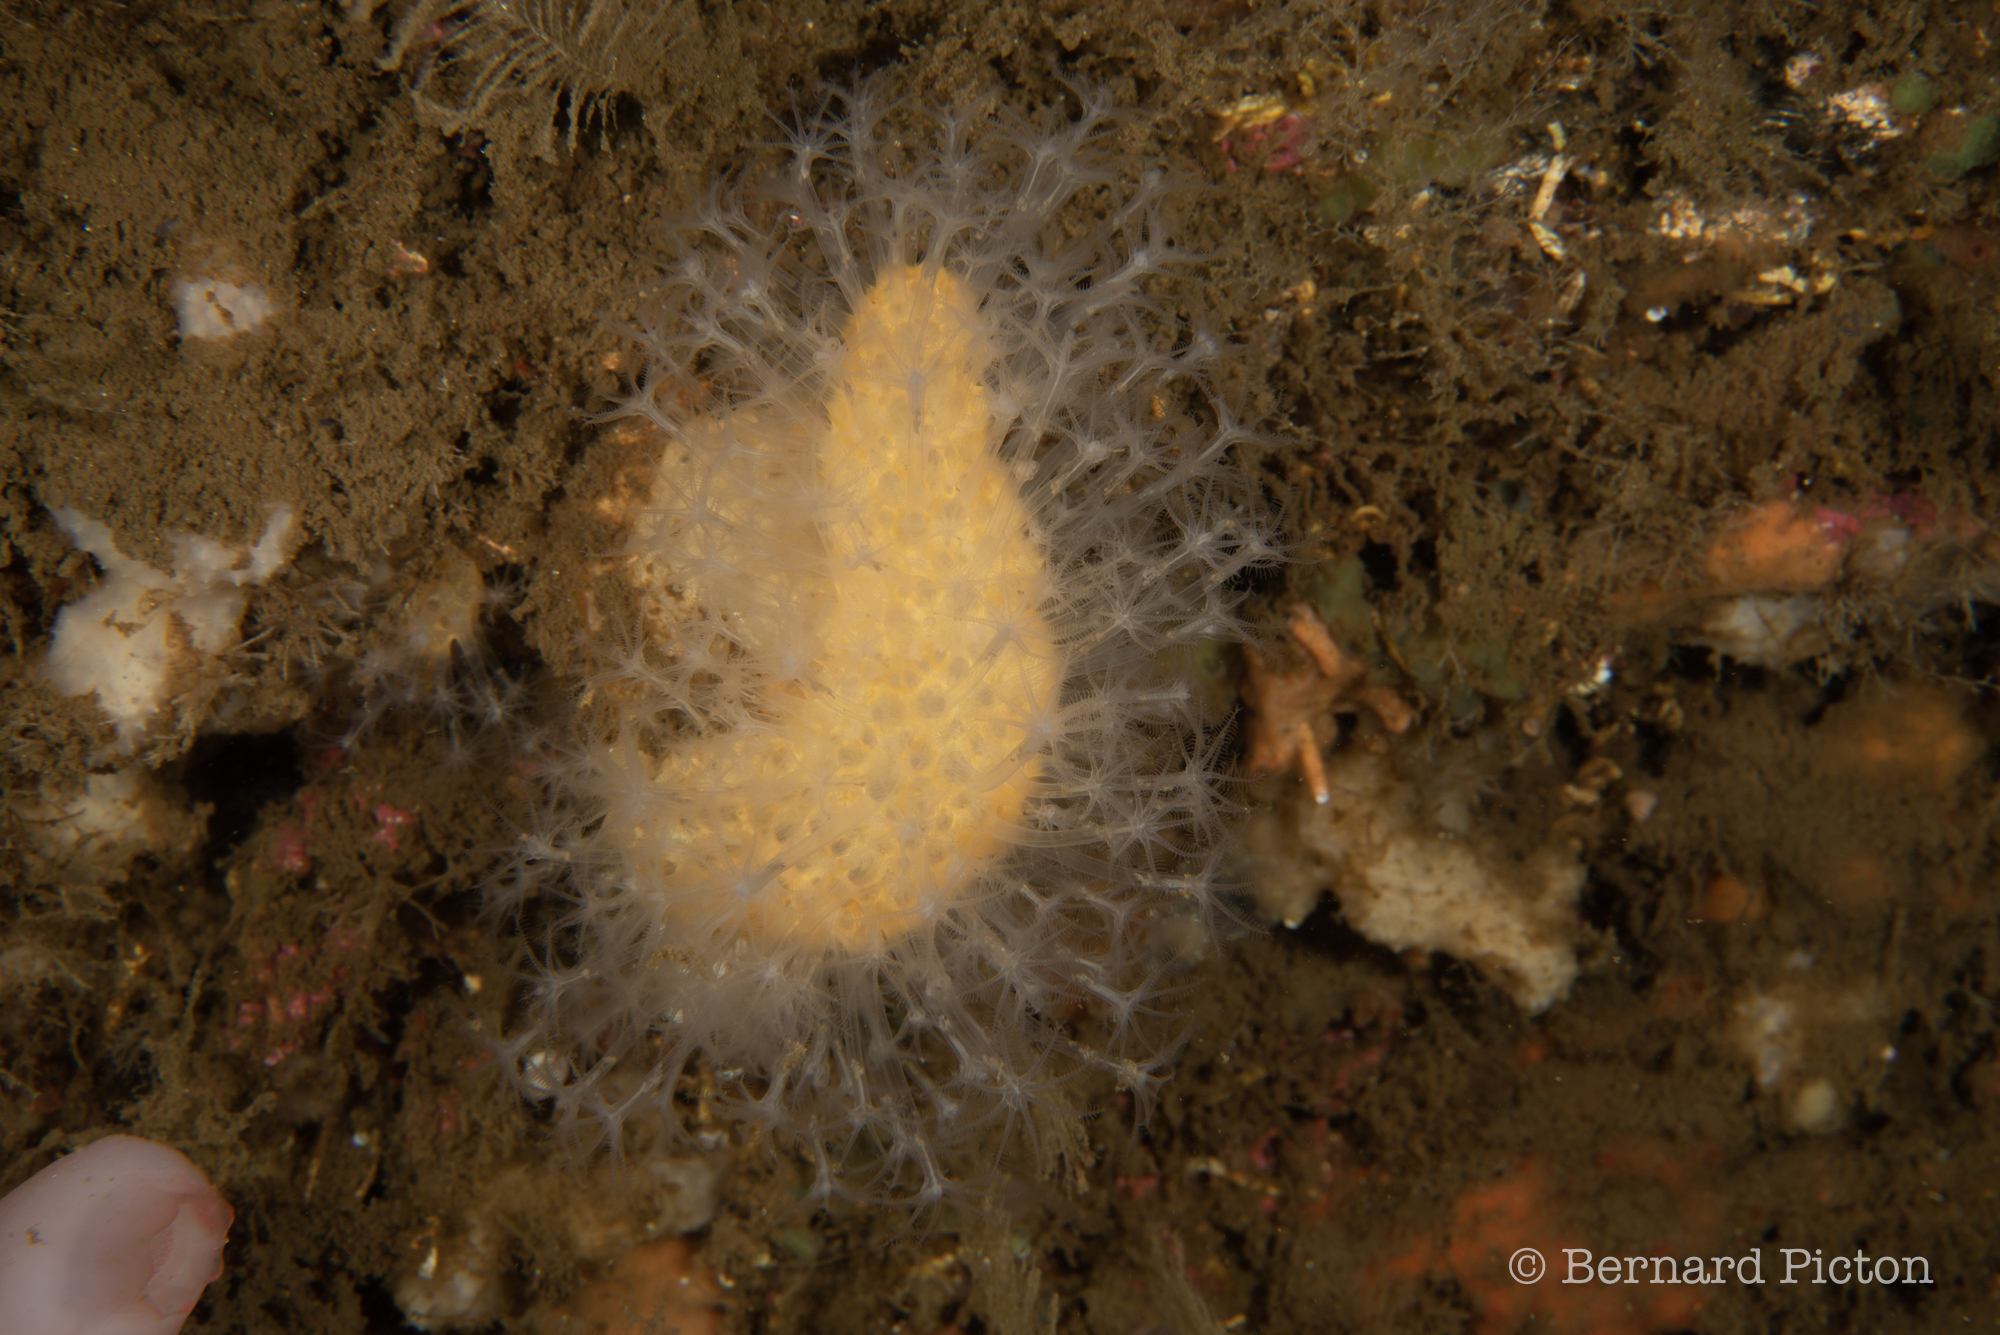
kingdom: Animalia
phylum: Cnidaria
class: Anthozoa
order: Malacalcyonacea
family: Alcyoniidae
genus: Alcyonium
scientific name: Alcyonium digitatum
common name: Dead man's fingers
